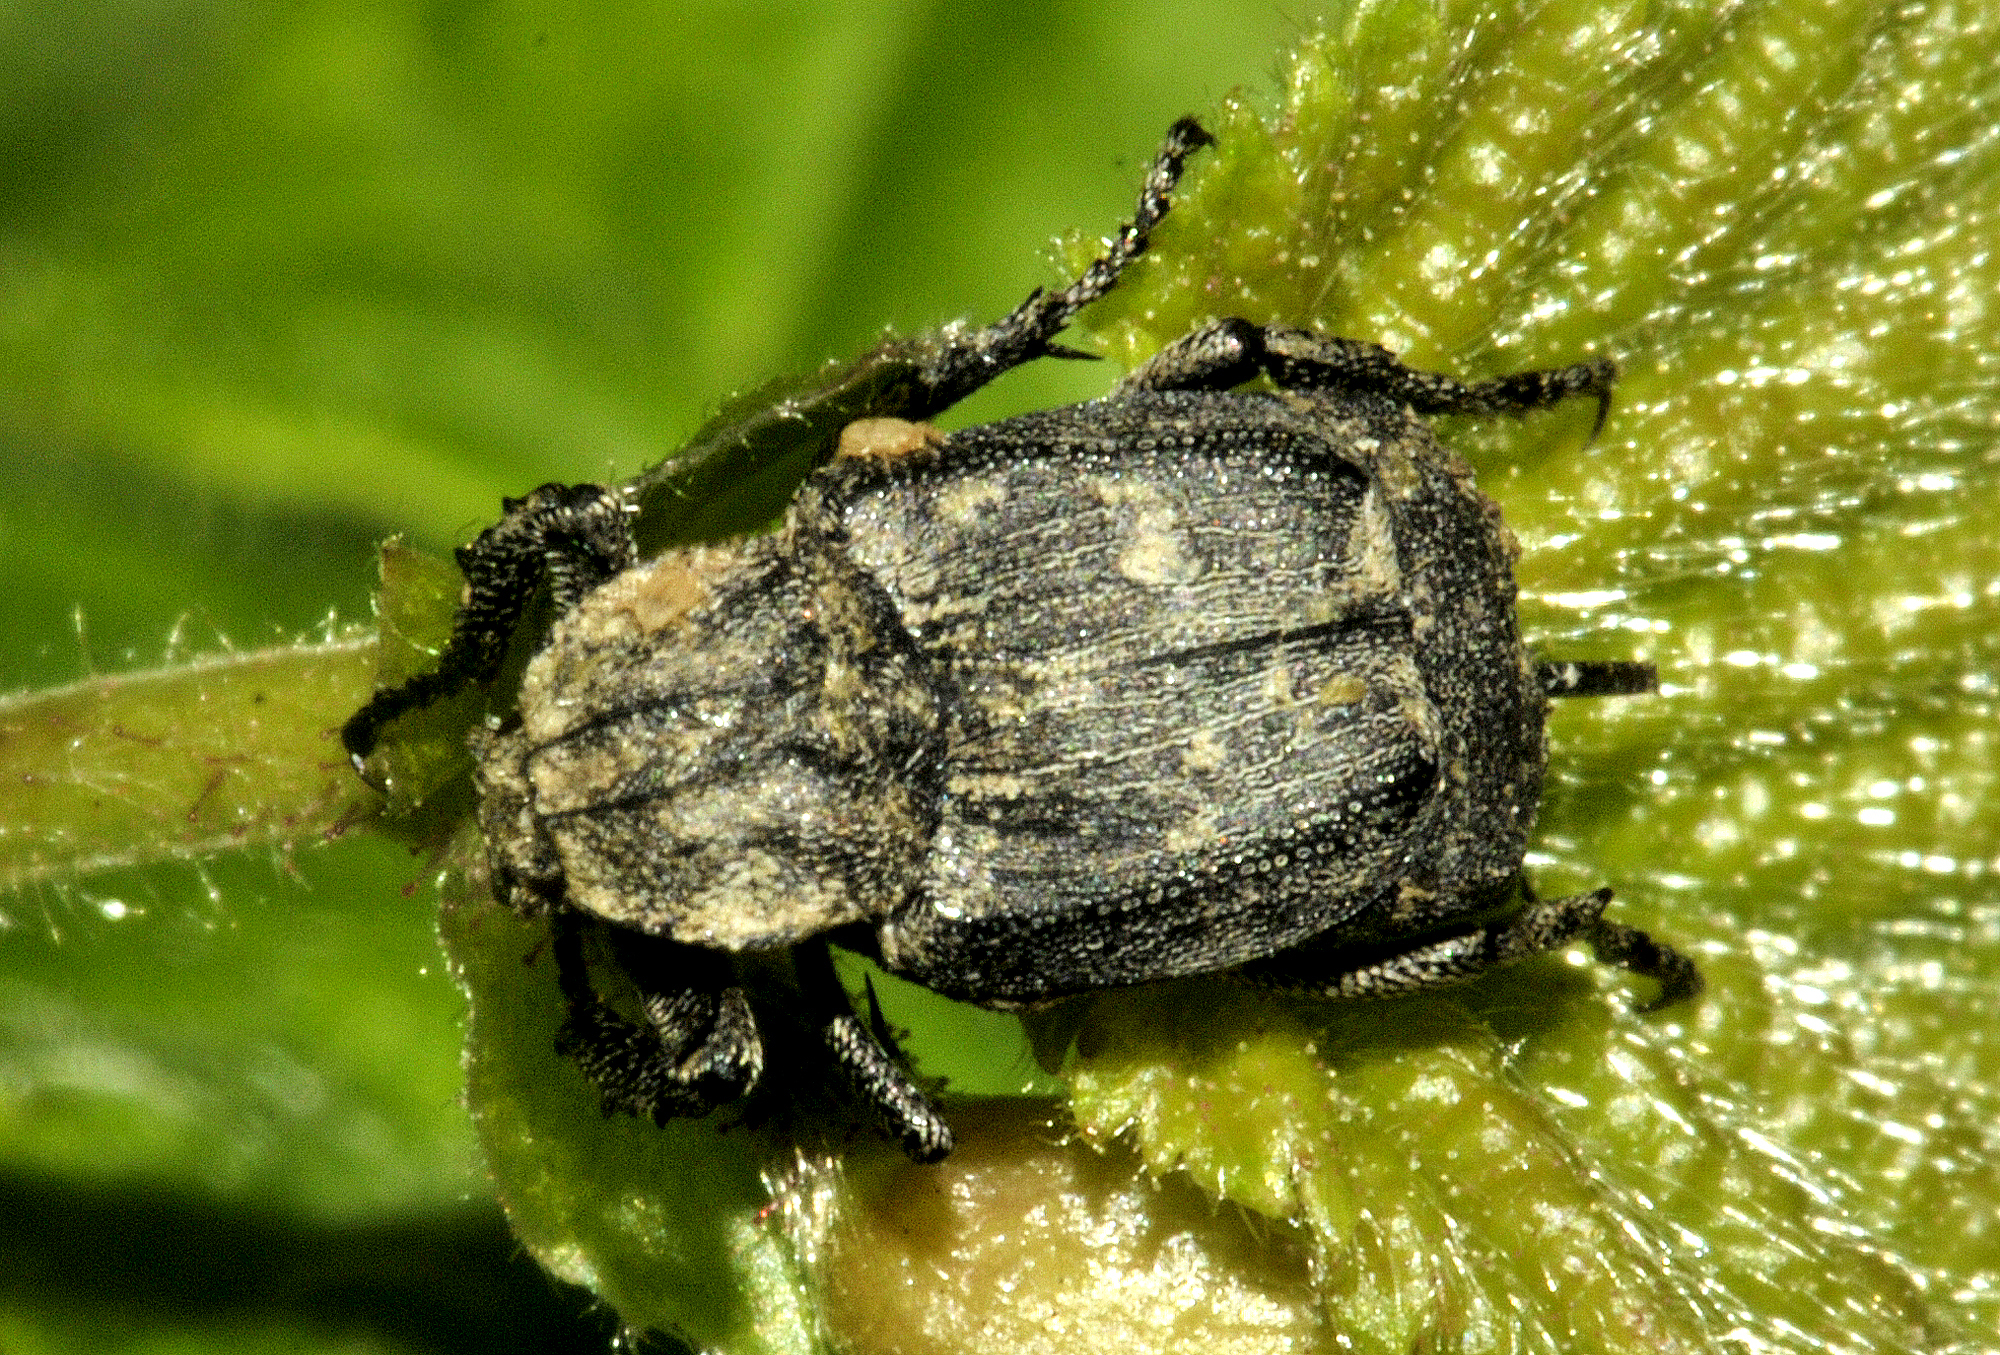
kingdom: Animalia
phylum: Arthropoda
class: Insecta
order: Coleoptera
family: Scarabaeidae
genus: Valgus
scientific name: Valgus hemipterus
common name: Bug flower chafer
